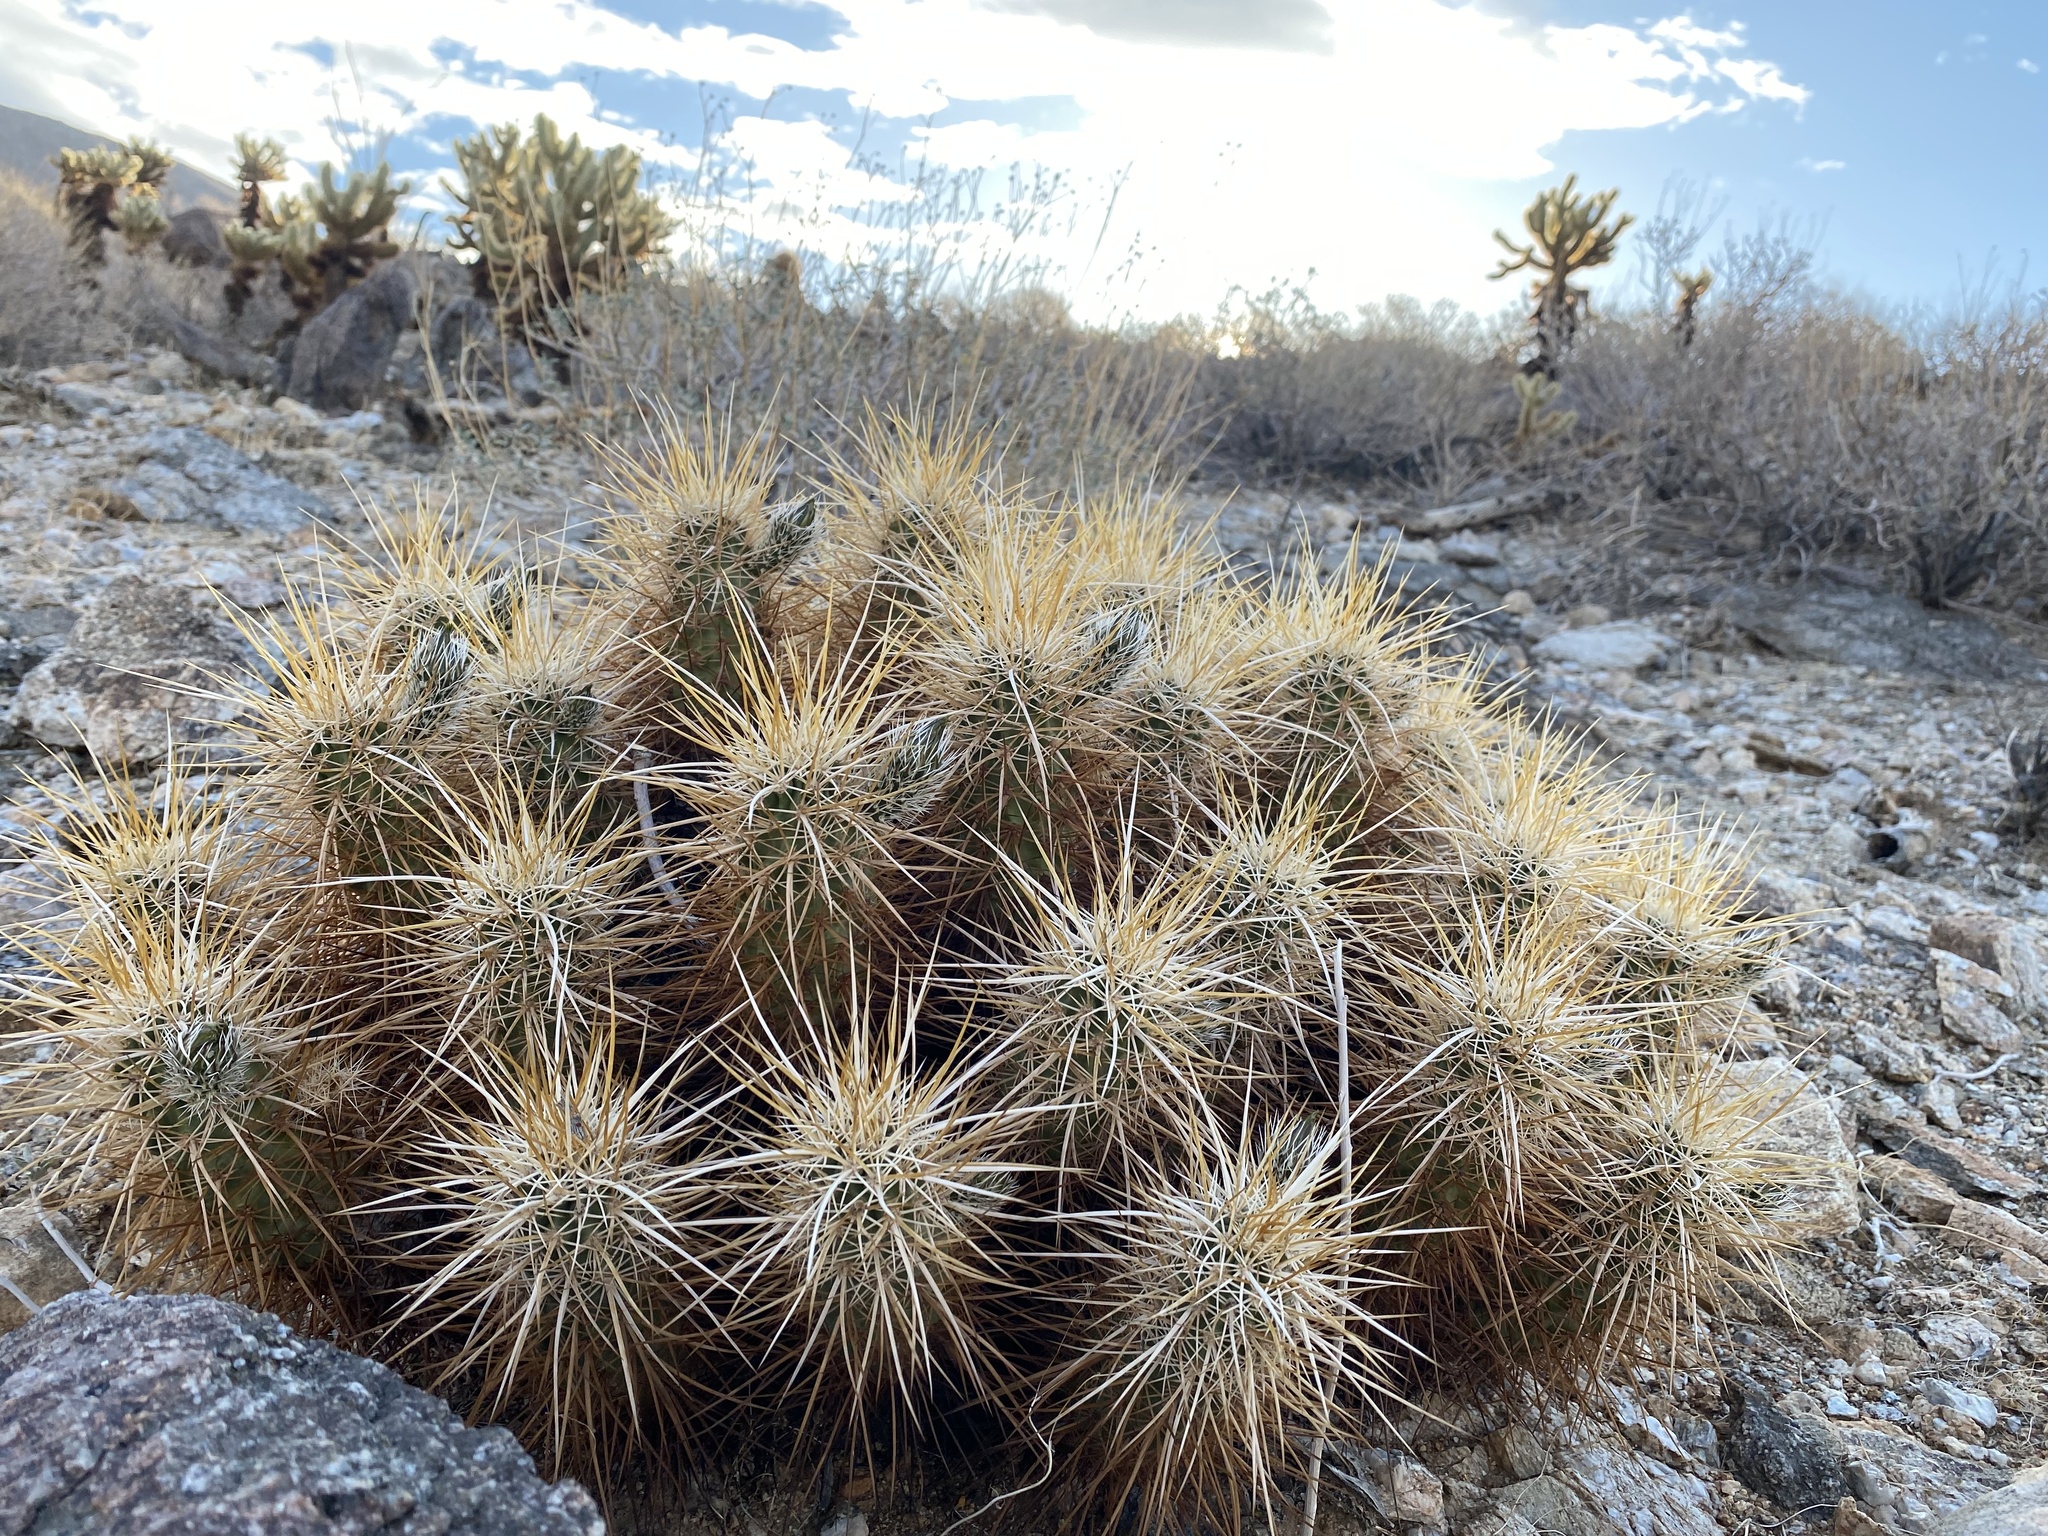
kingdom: Plantae
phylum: Tracheophyta
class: Magnoliopsida
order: Caryophyllales
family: Cactaceae
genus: Echinocereus
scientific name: Echinocereus engelmannii
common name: Engelmann's hedgehog cactus
